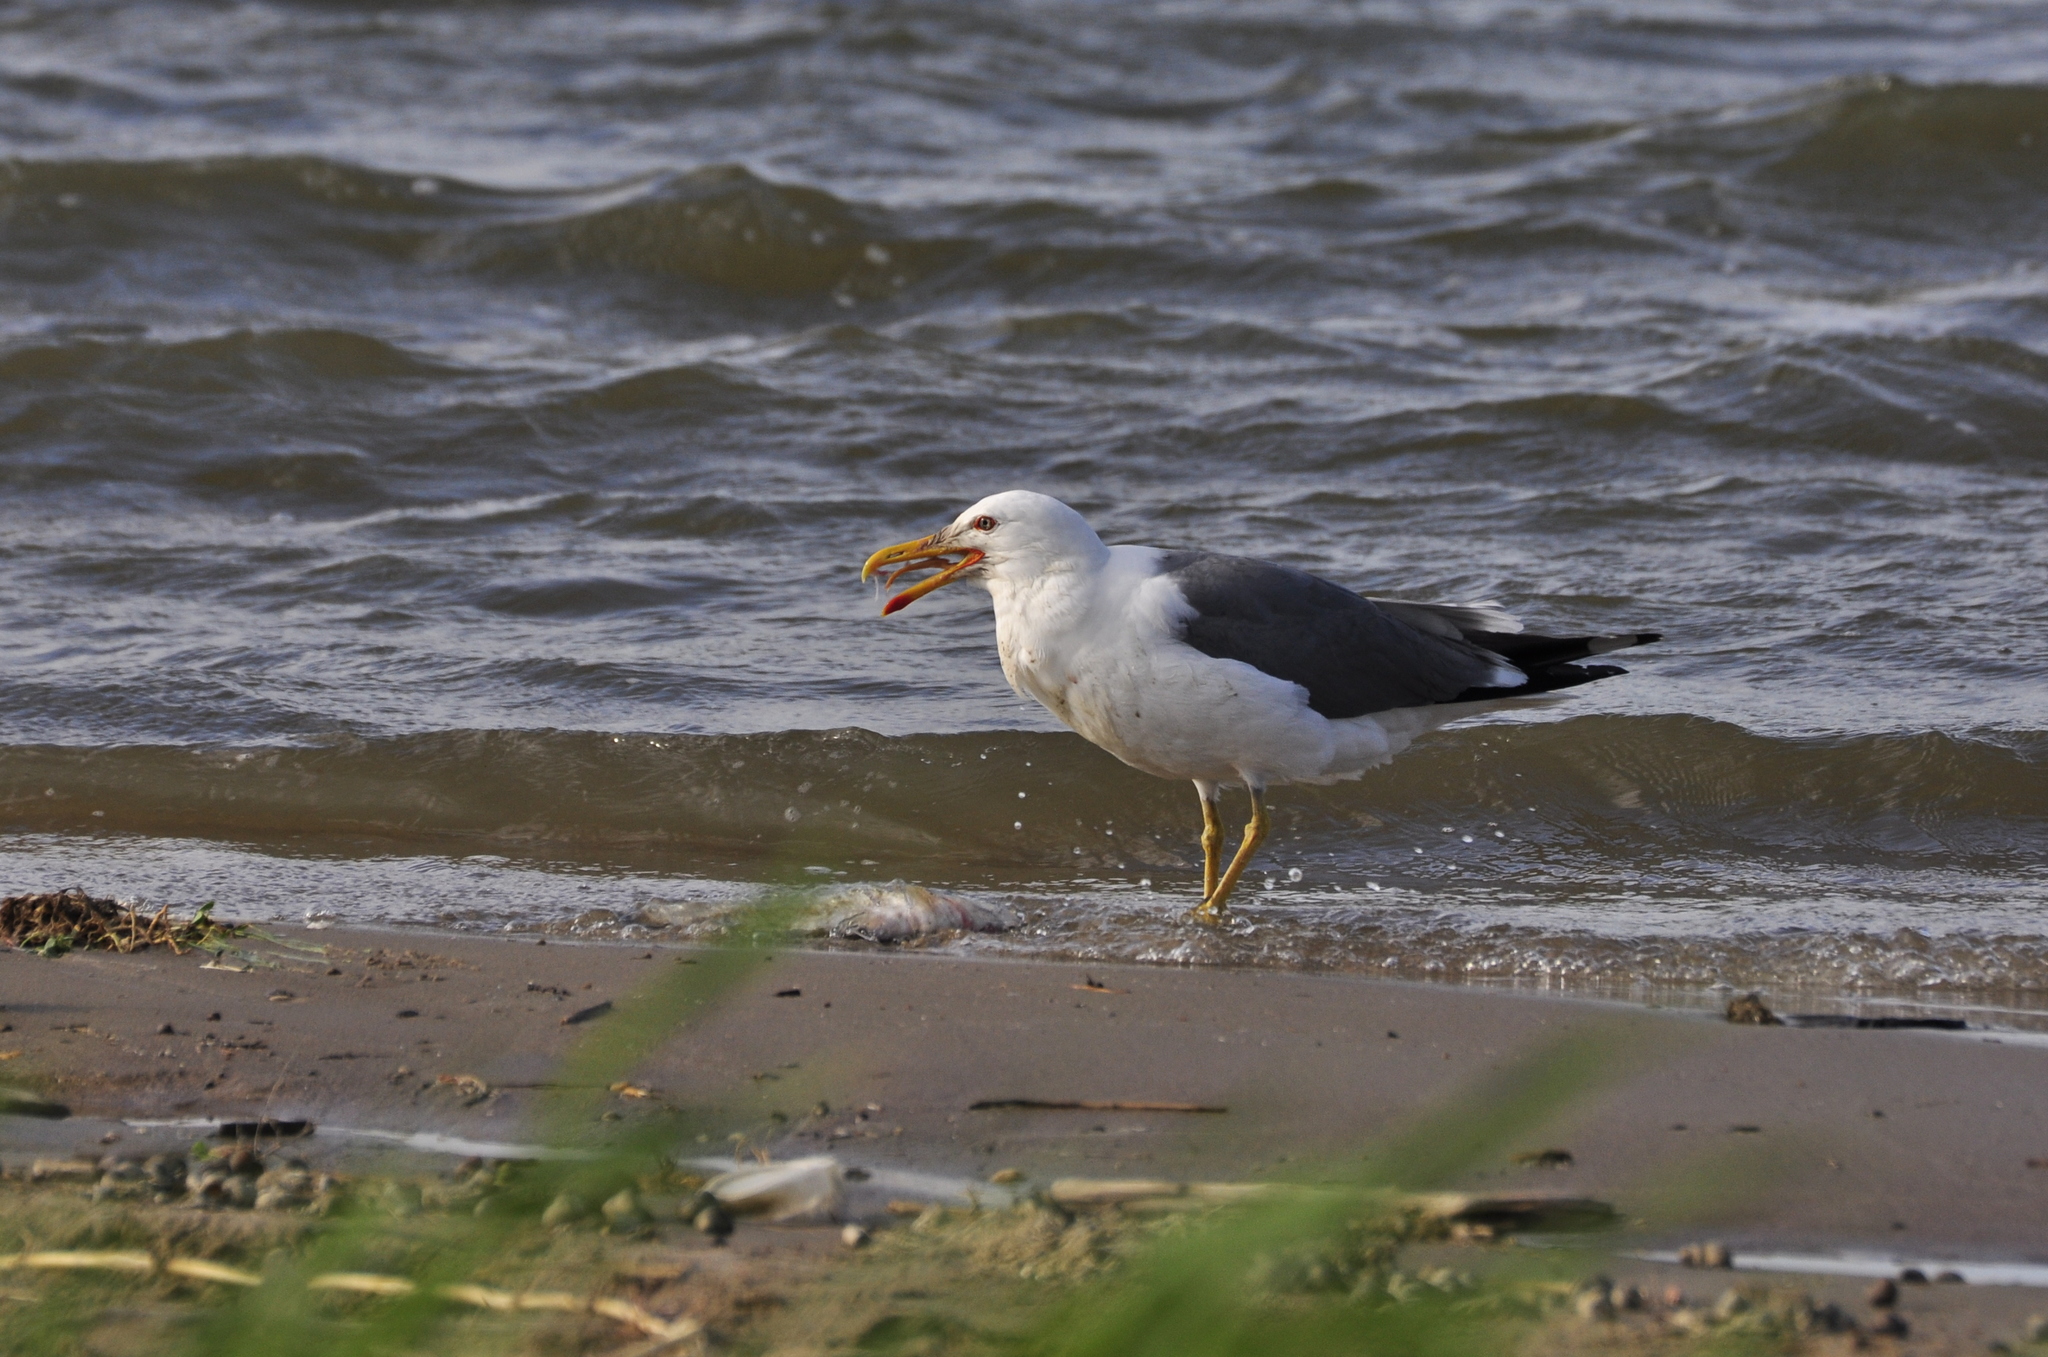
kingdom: Animalia
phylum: Chordata
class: Aves
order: Charadriiformes
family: Laridae
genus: Larus
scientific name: Larus fuscus
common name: Lesser black-backed gull
